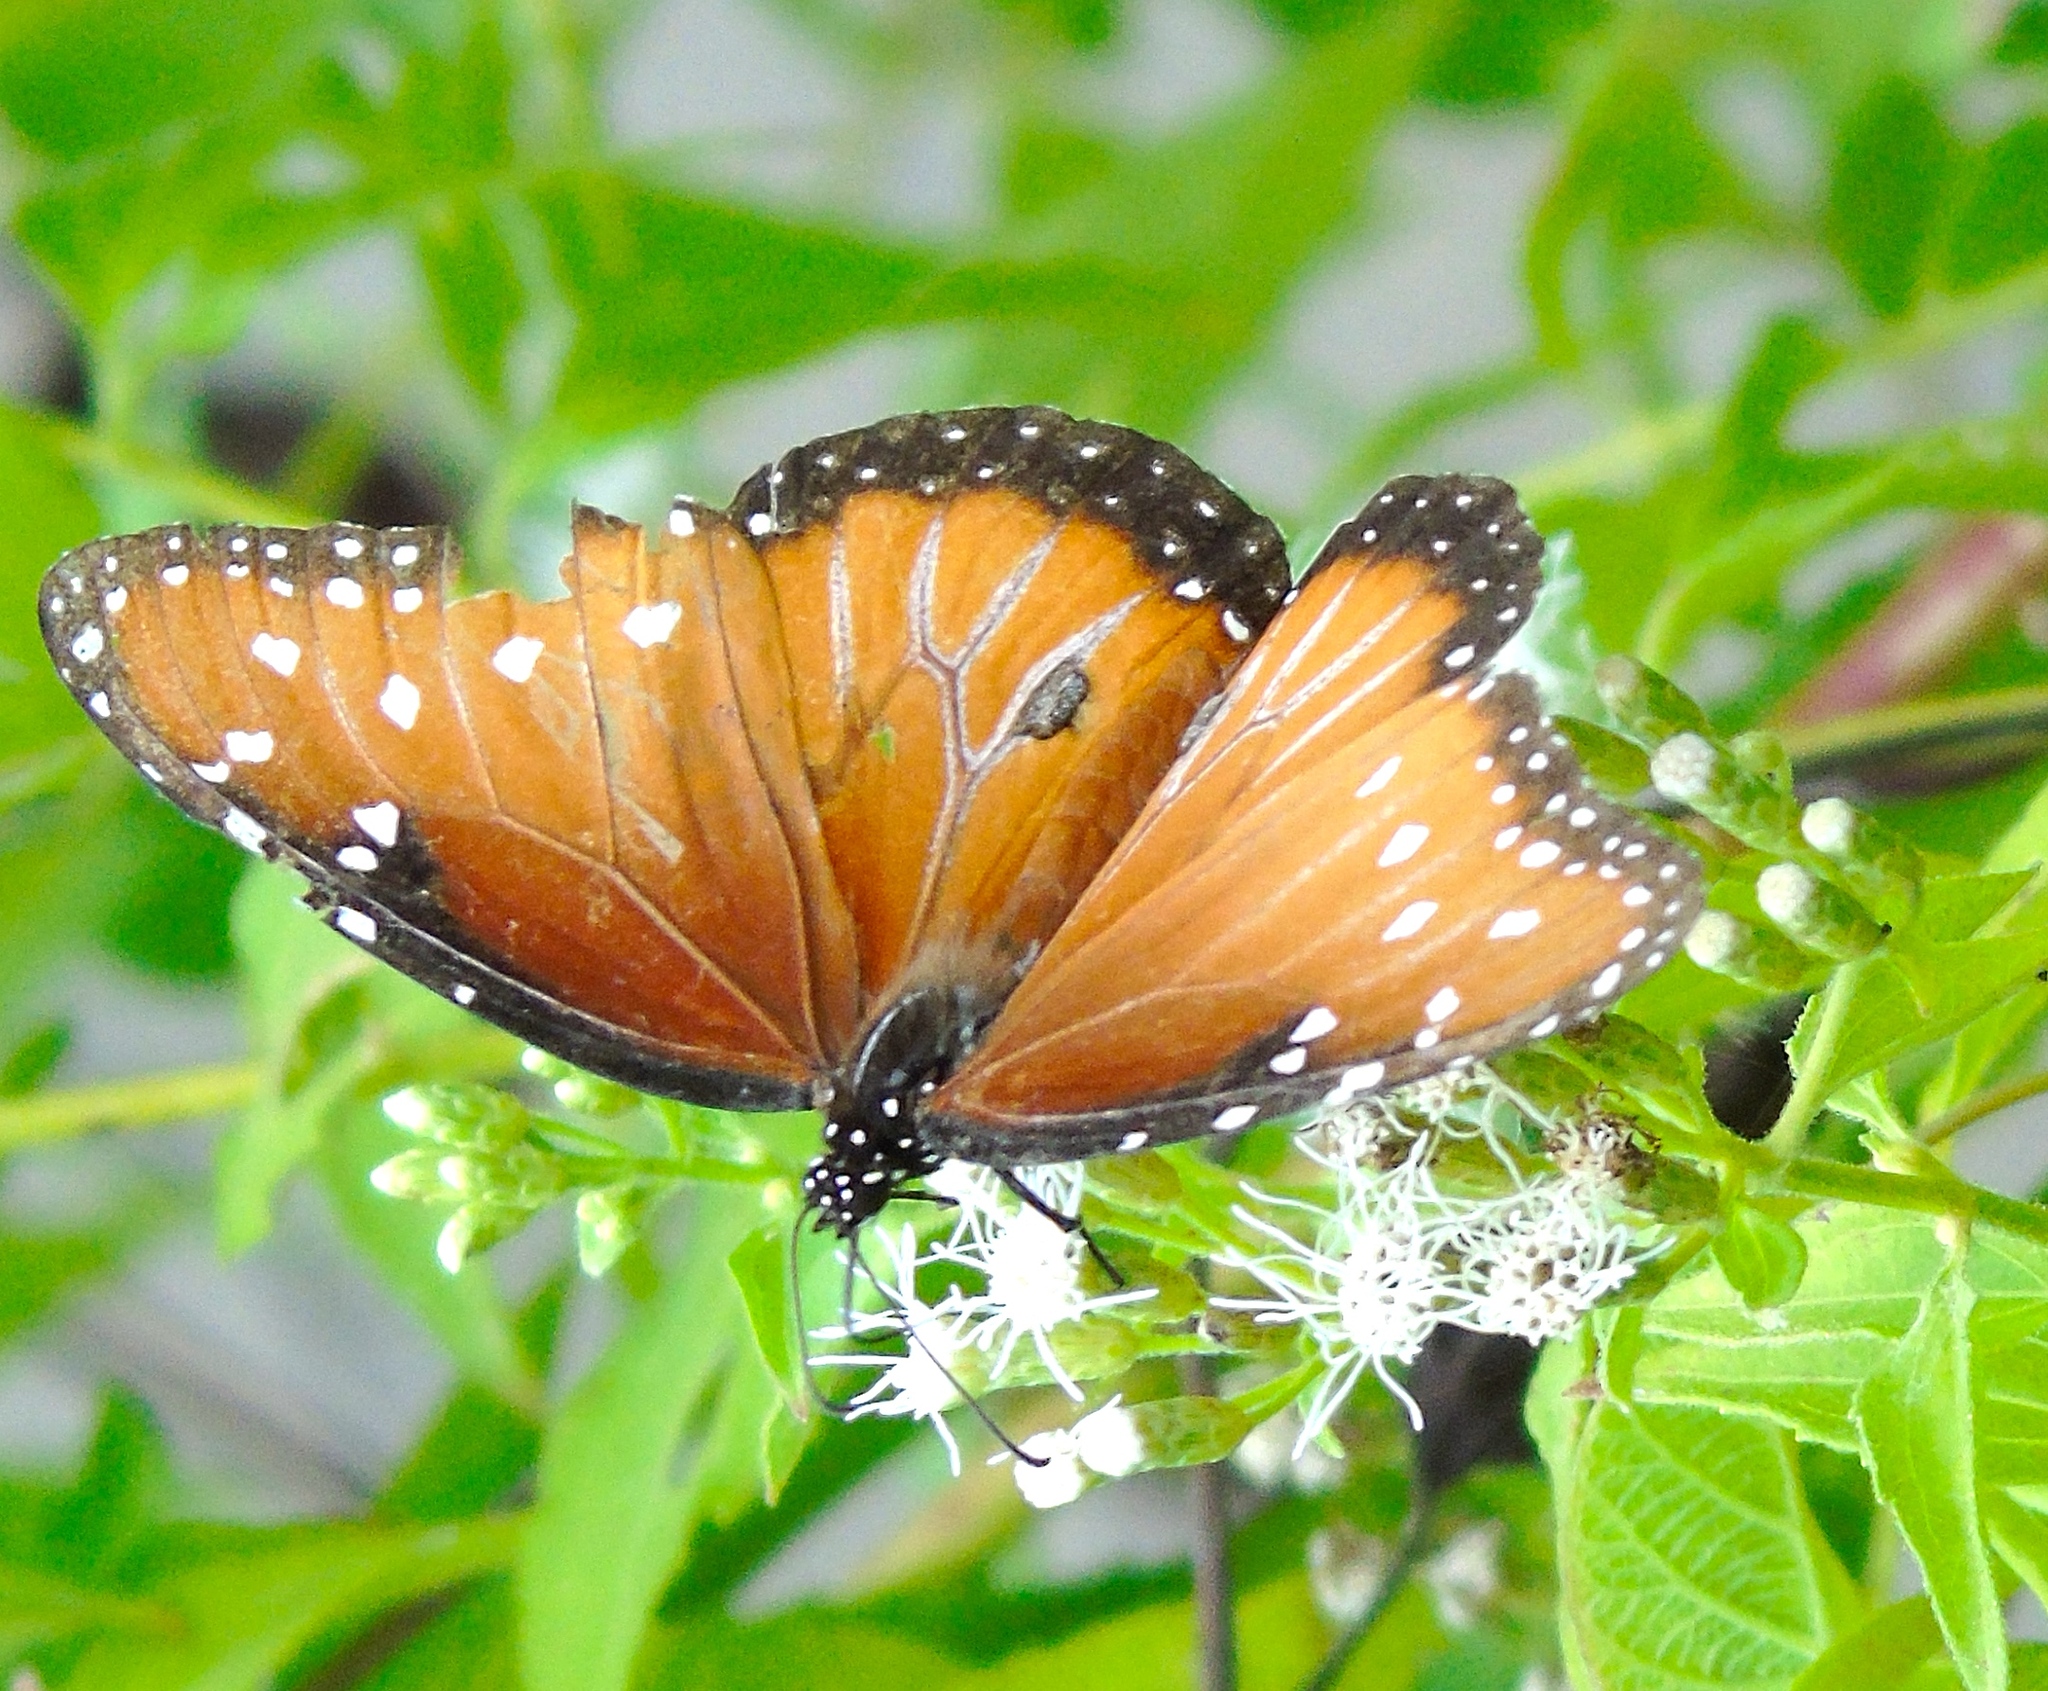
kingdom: Animalia
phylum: Arthropoda
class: Insecta
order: Lepidoptera
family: Nymphalidae
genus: Danaus
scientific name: Danaus gilippus
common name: Queen
